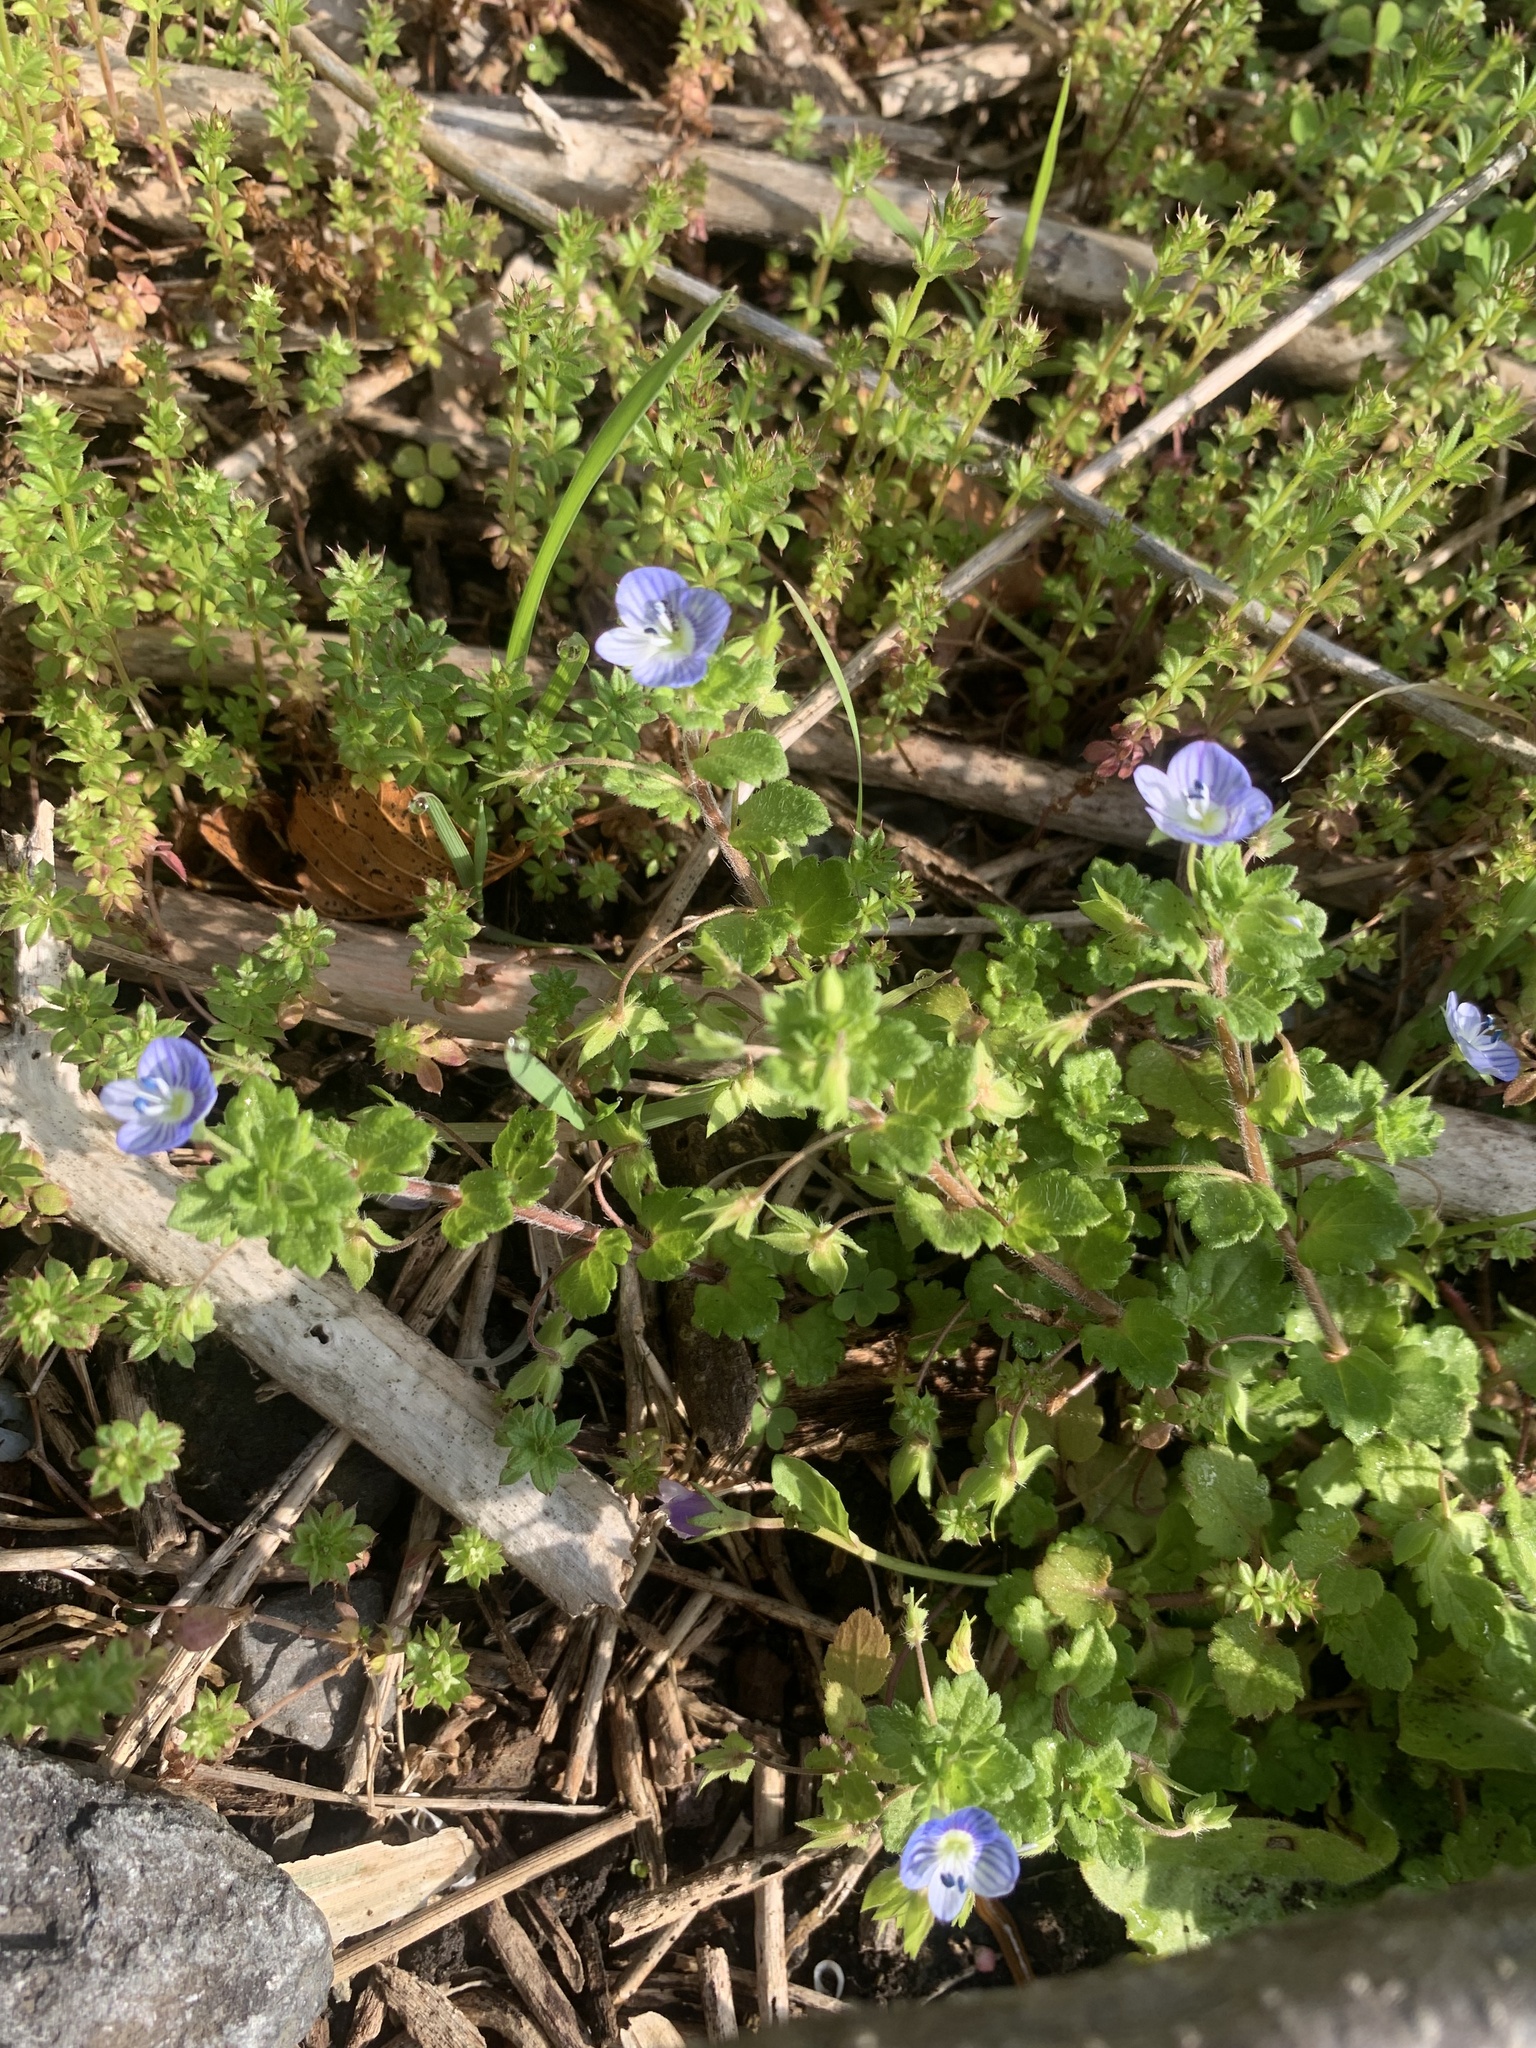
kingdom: Plantae
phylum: Tracheophyta
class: Magnoliopsida
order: Lamiales
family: Plantaginaceae
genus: Veronica
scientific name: Veronica persica
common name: Common field-speedwell
